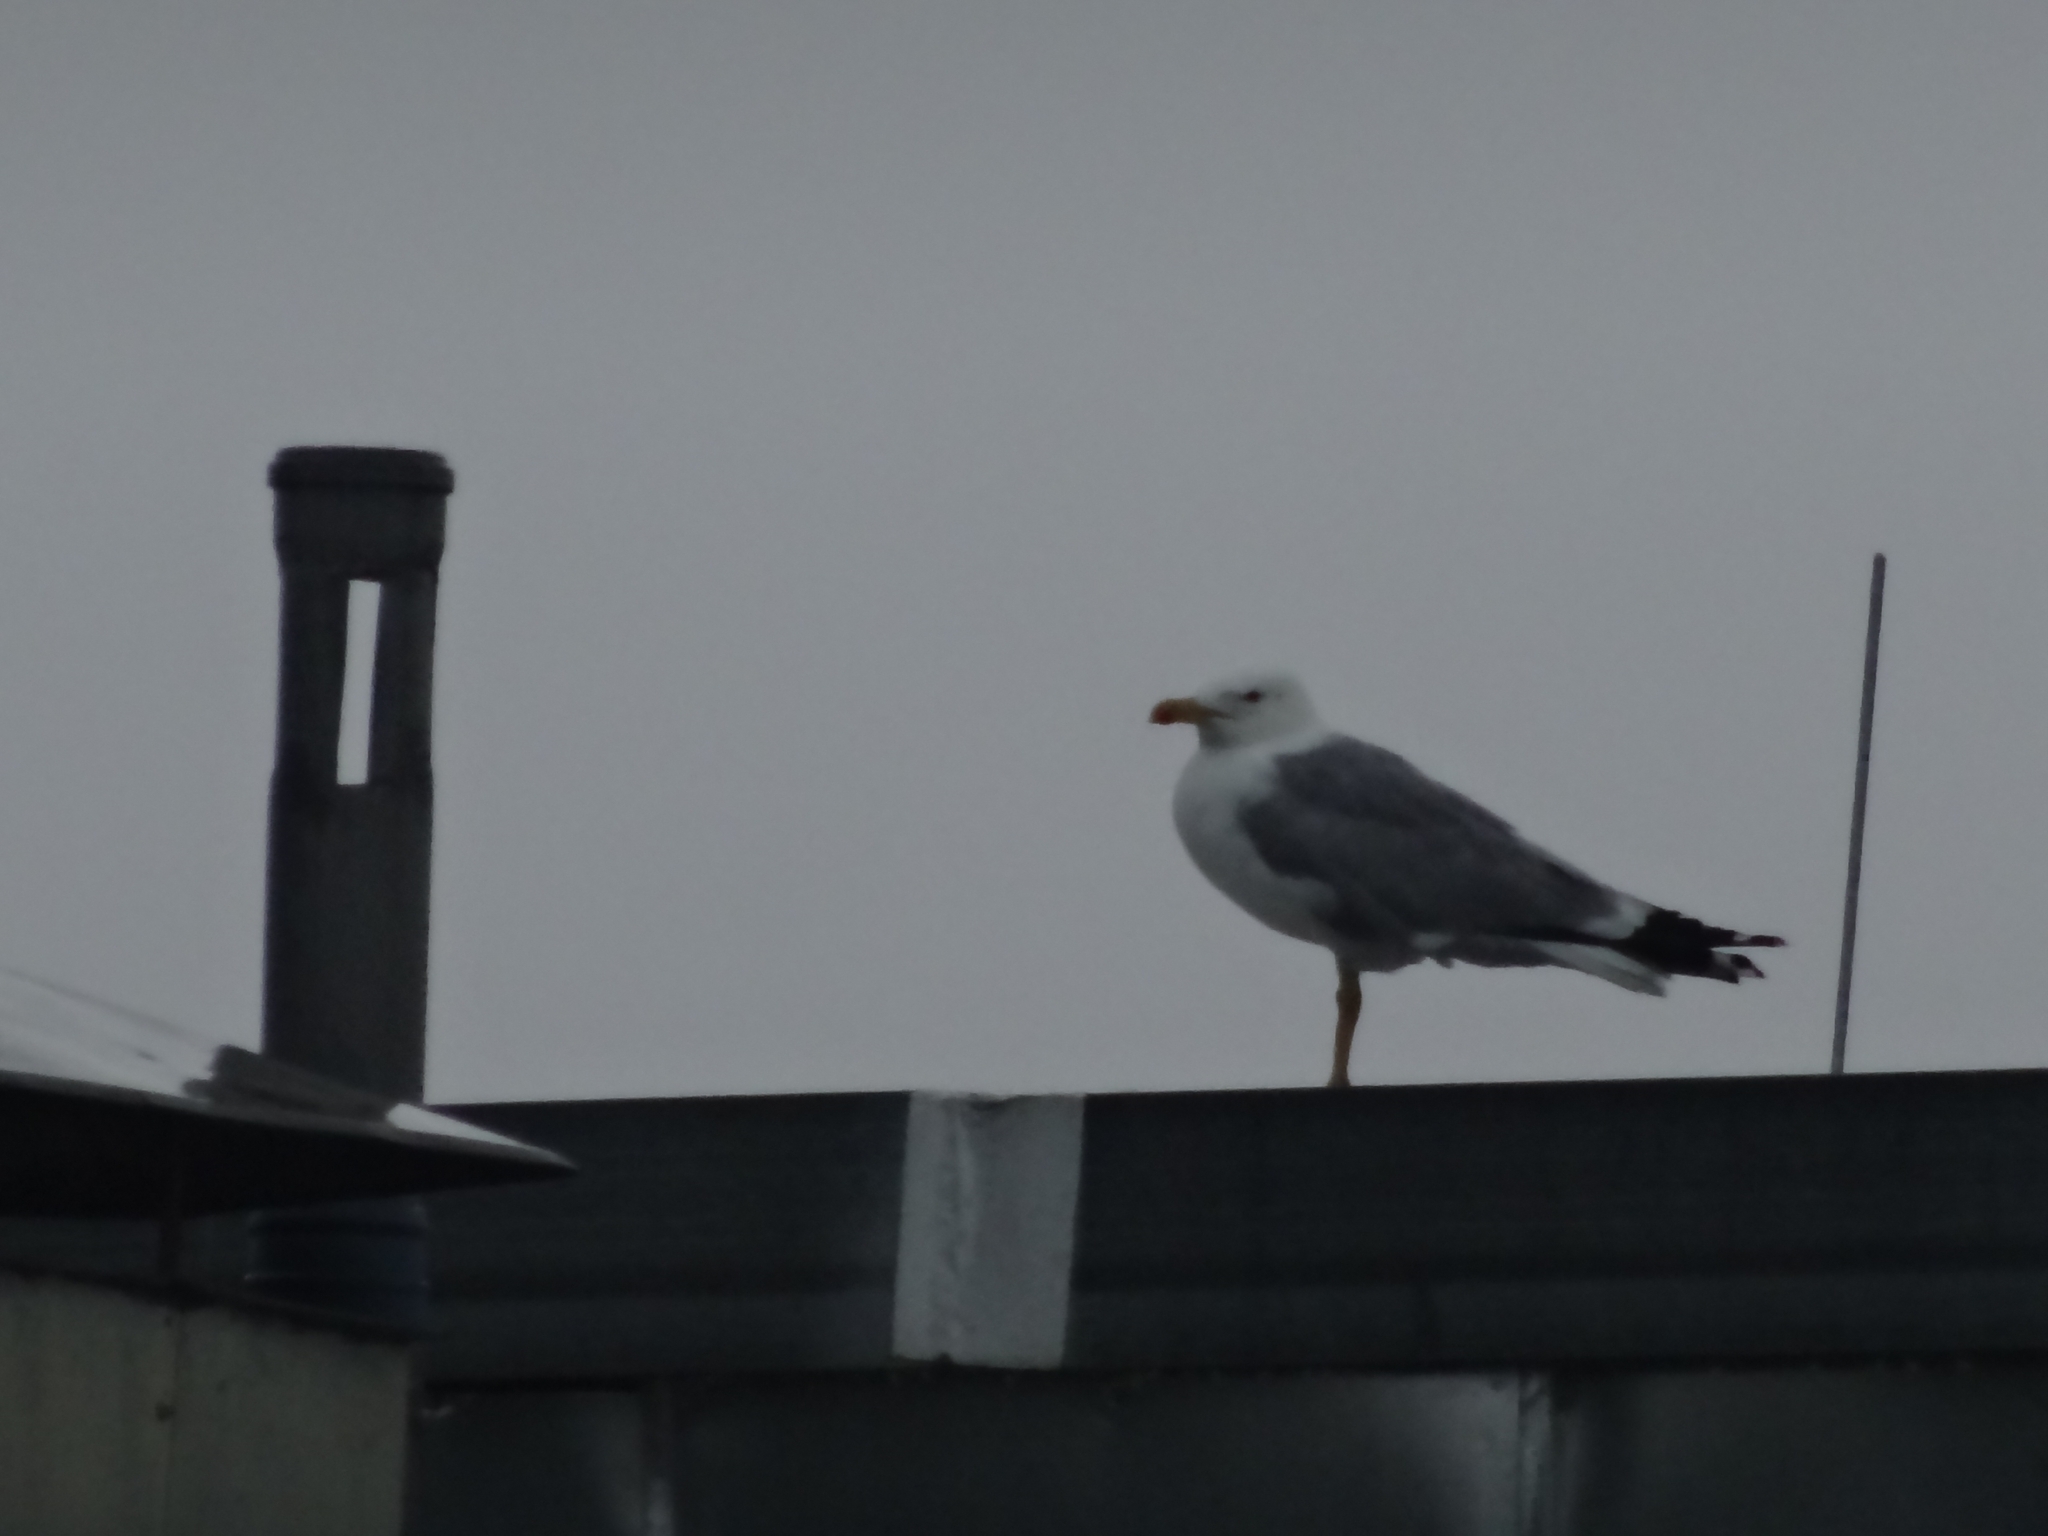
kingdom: Animalia
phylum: Chordata
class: Aves
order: Charadriiformes
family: Laridae
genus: Larus
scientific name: Larus michahellis
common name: Yellow-legged gull
